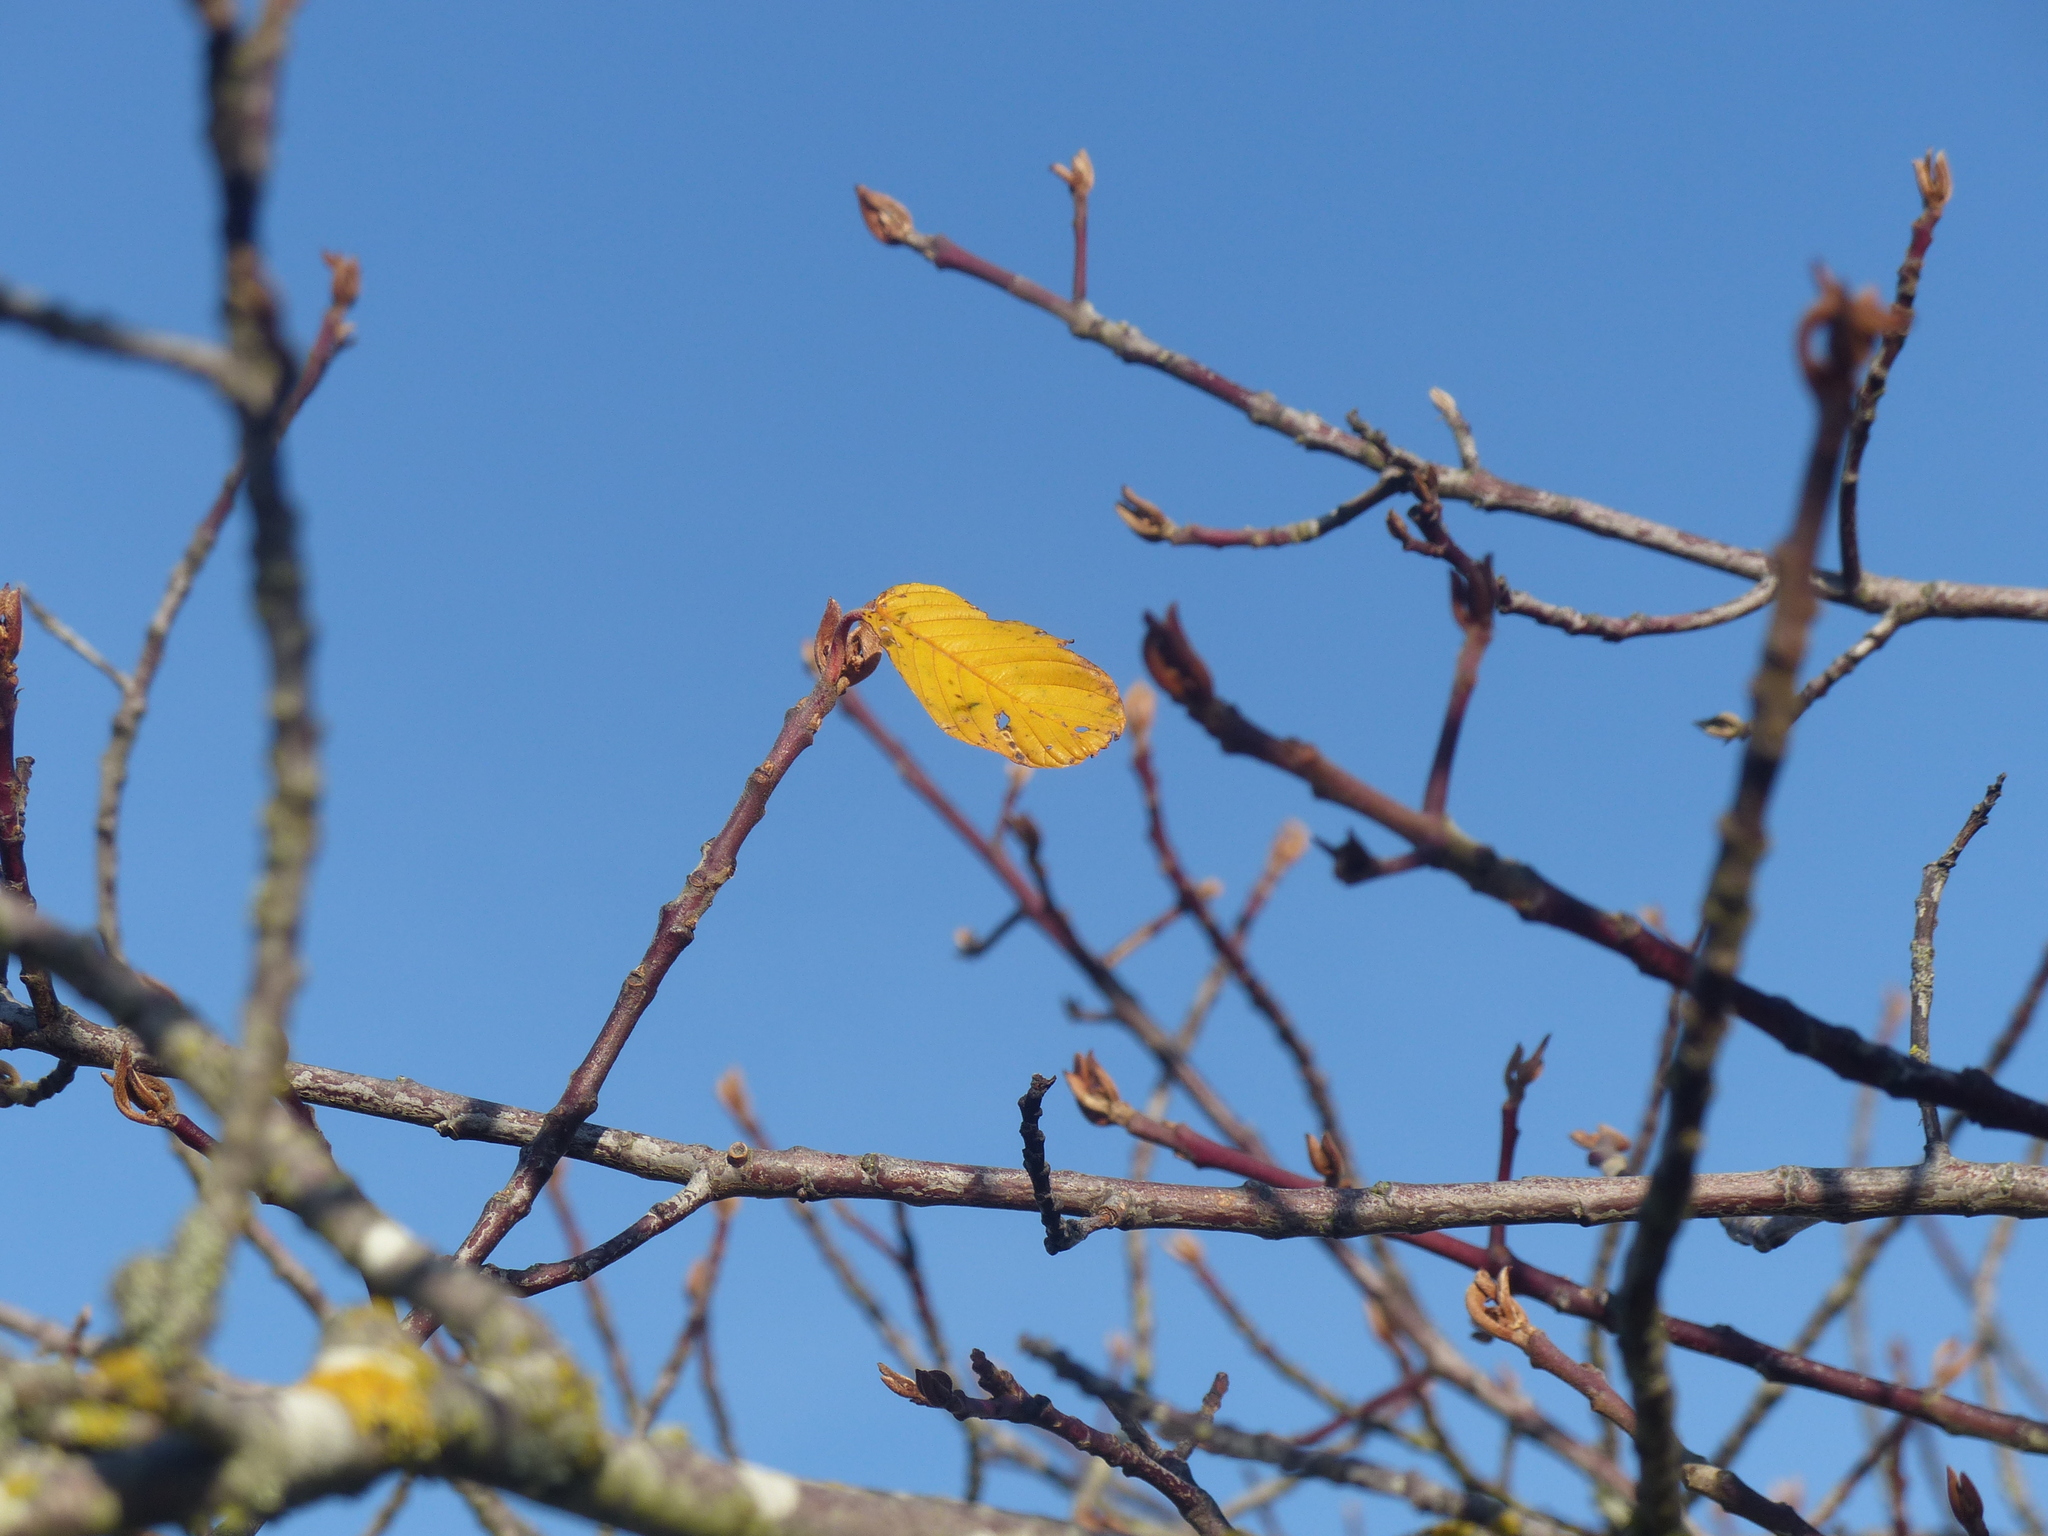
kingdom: Plantae
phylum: Tracheophyta
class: Magnoliopsida
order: Rosales
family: Rhamnaceae
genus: Frangula
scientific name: Frangula purshiana
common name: Cascara buckthorn
